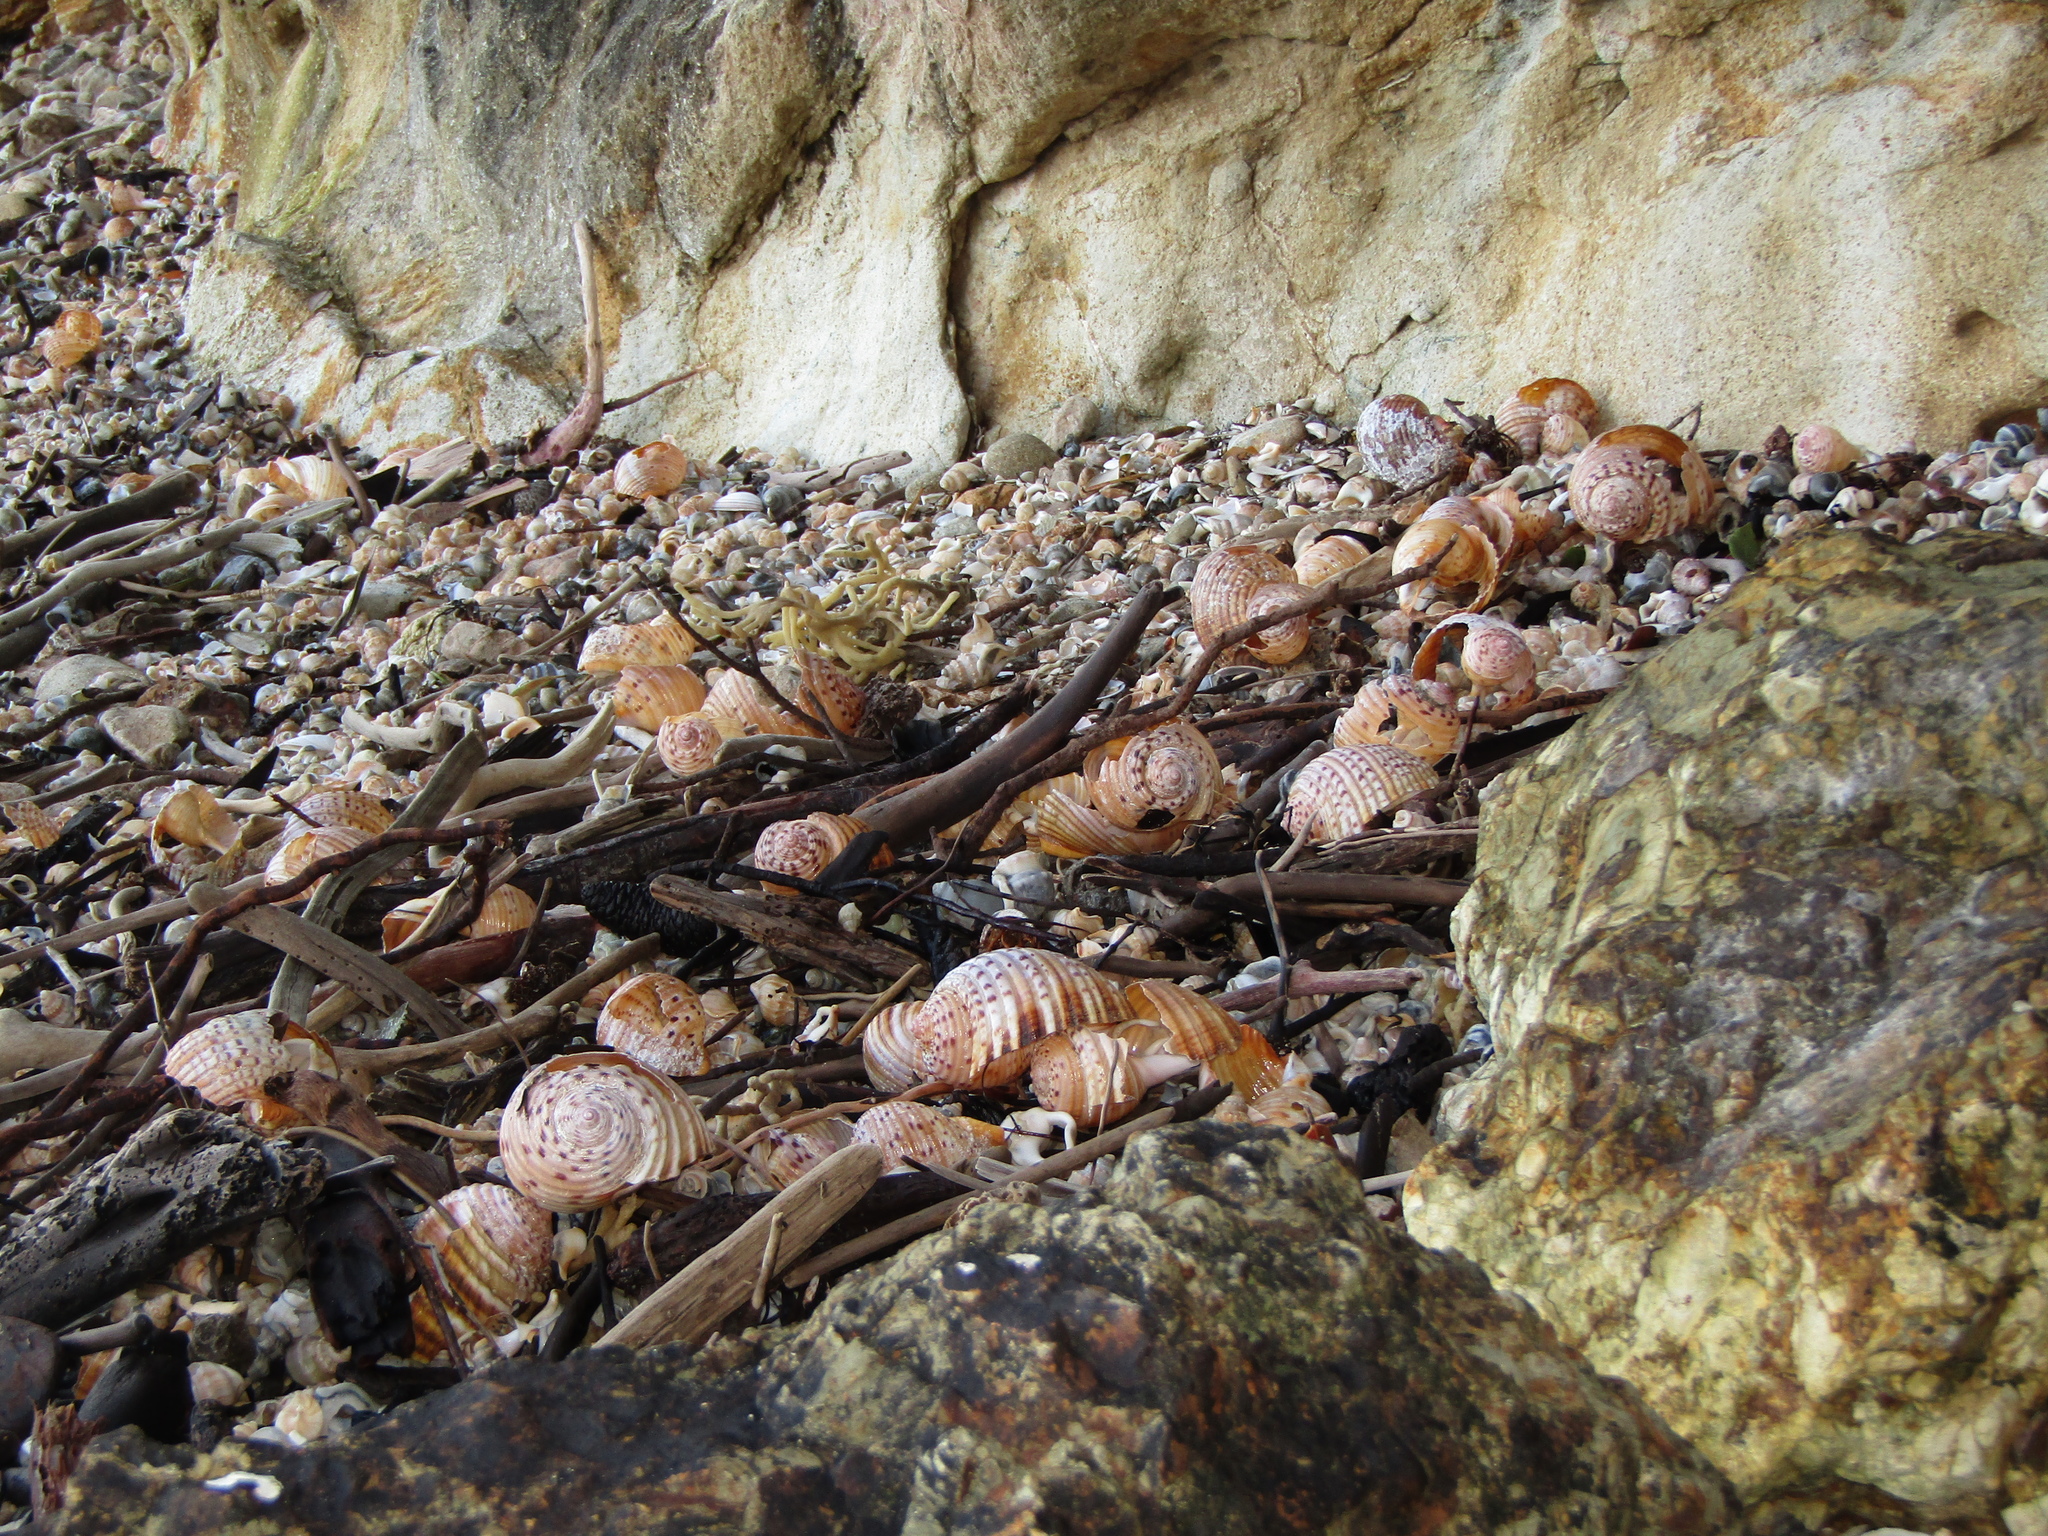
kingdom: Animalia
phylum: Mollusca
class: Gastropoda
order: Littorinimorpha
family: Tonnidae
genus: Tonna
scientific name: Tonna tankervillii
